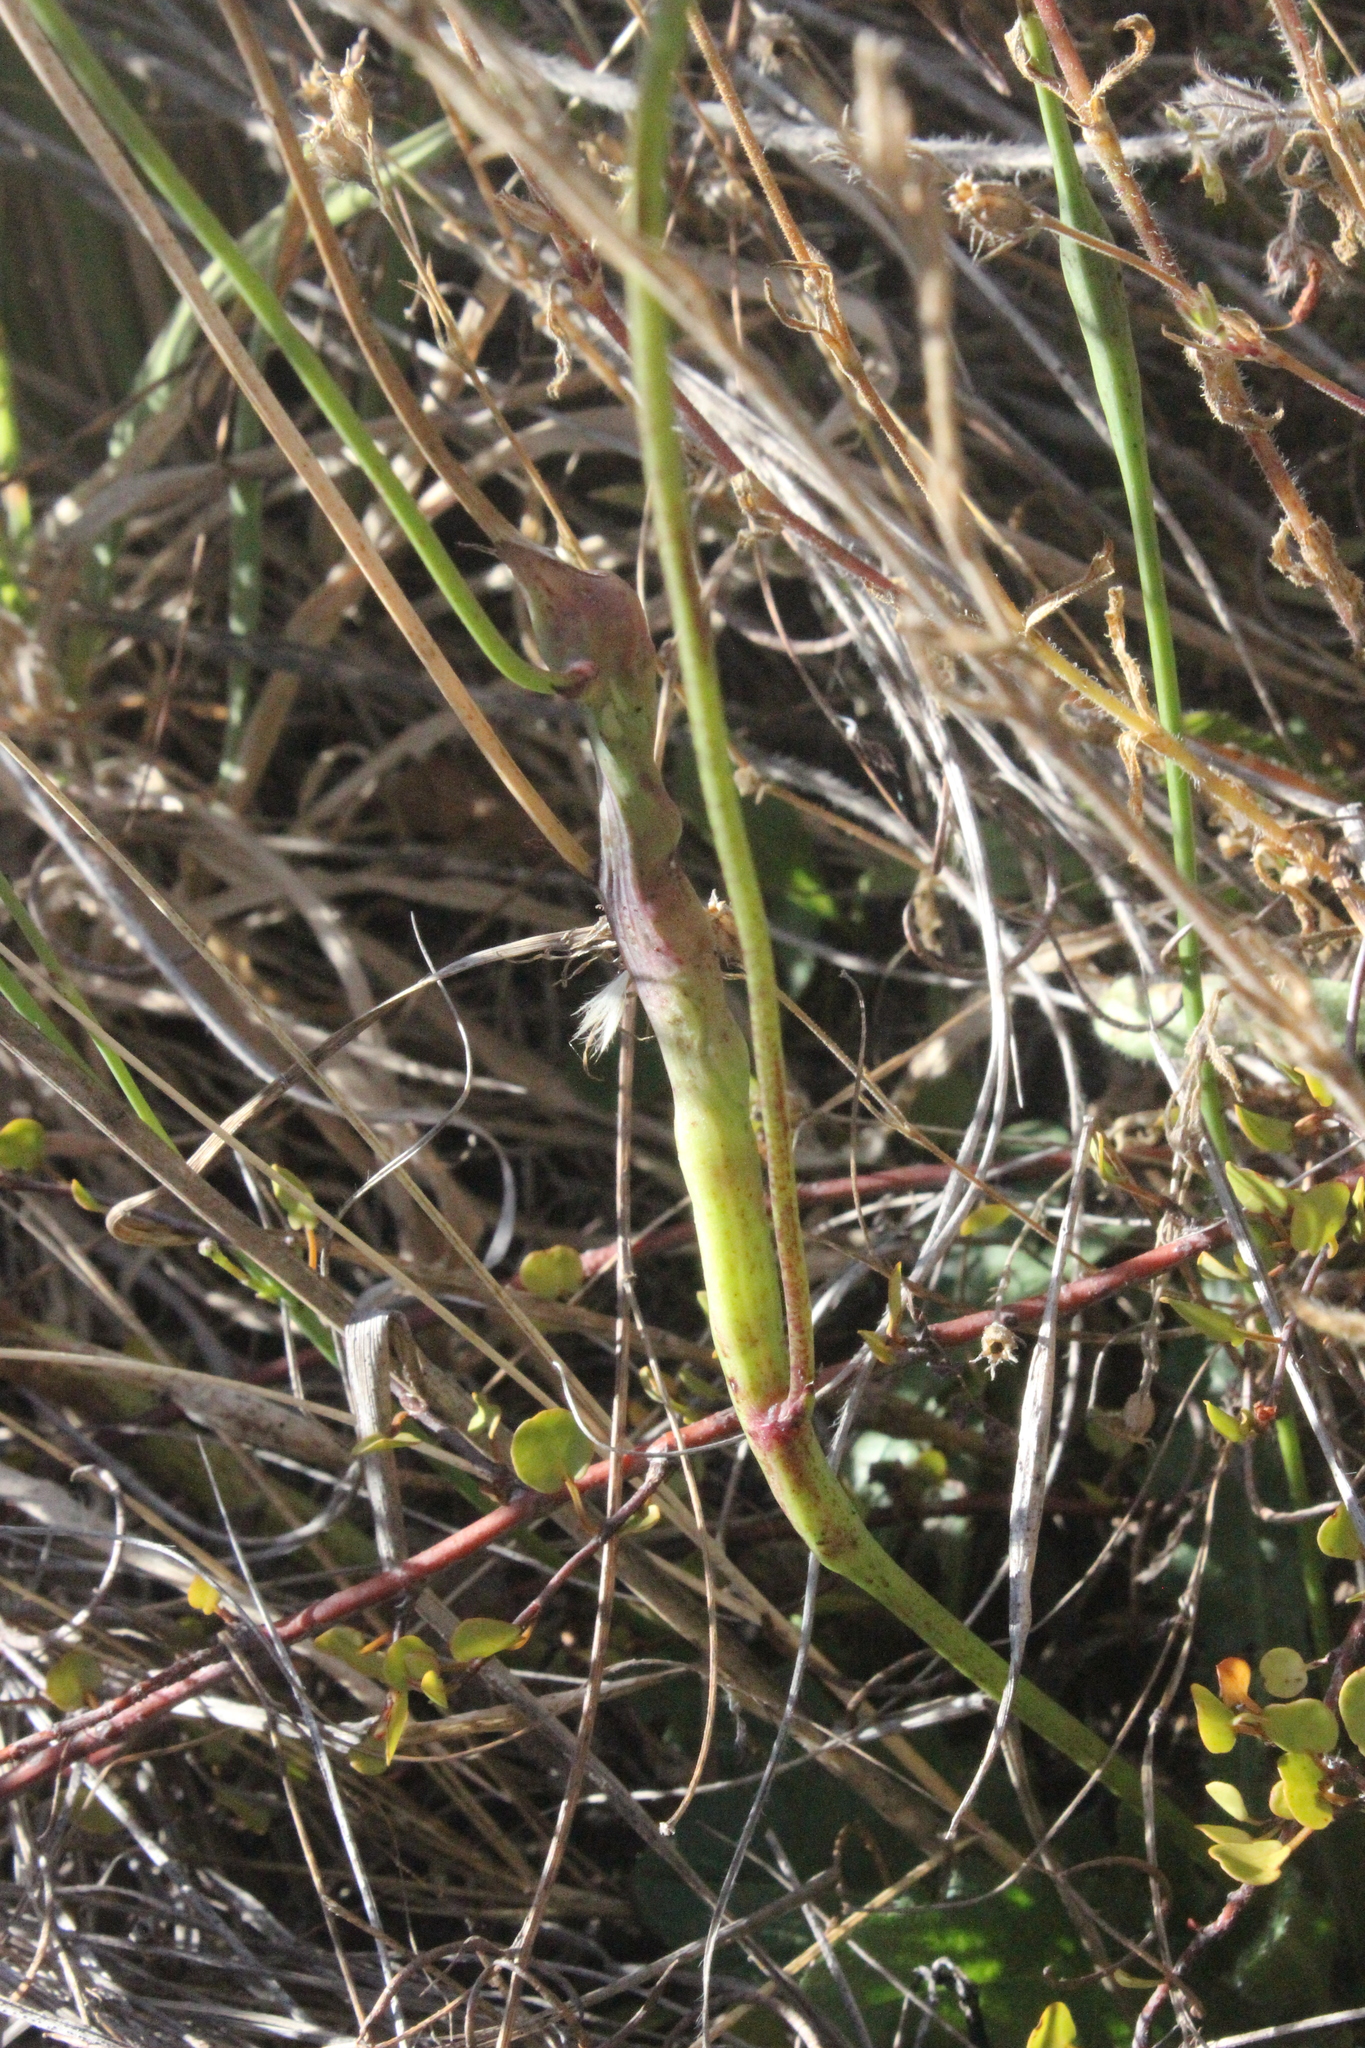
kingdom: Animalia
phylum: Arthropoda
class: Insecta
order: Hymenoptera
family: Cynipidae
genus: Phanacis
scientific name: Phanacis hypochoeridis
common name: Gall wasp
